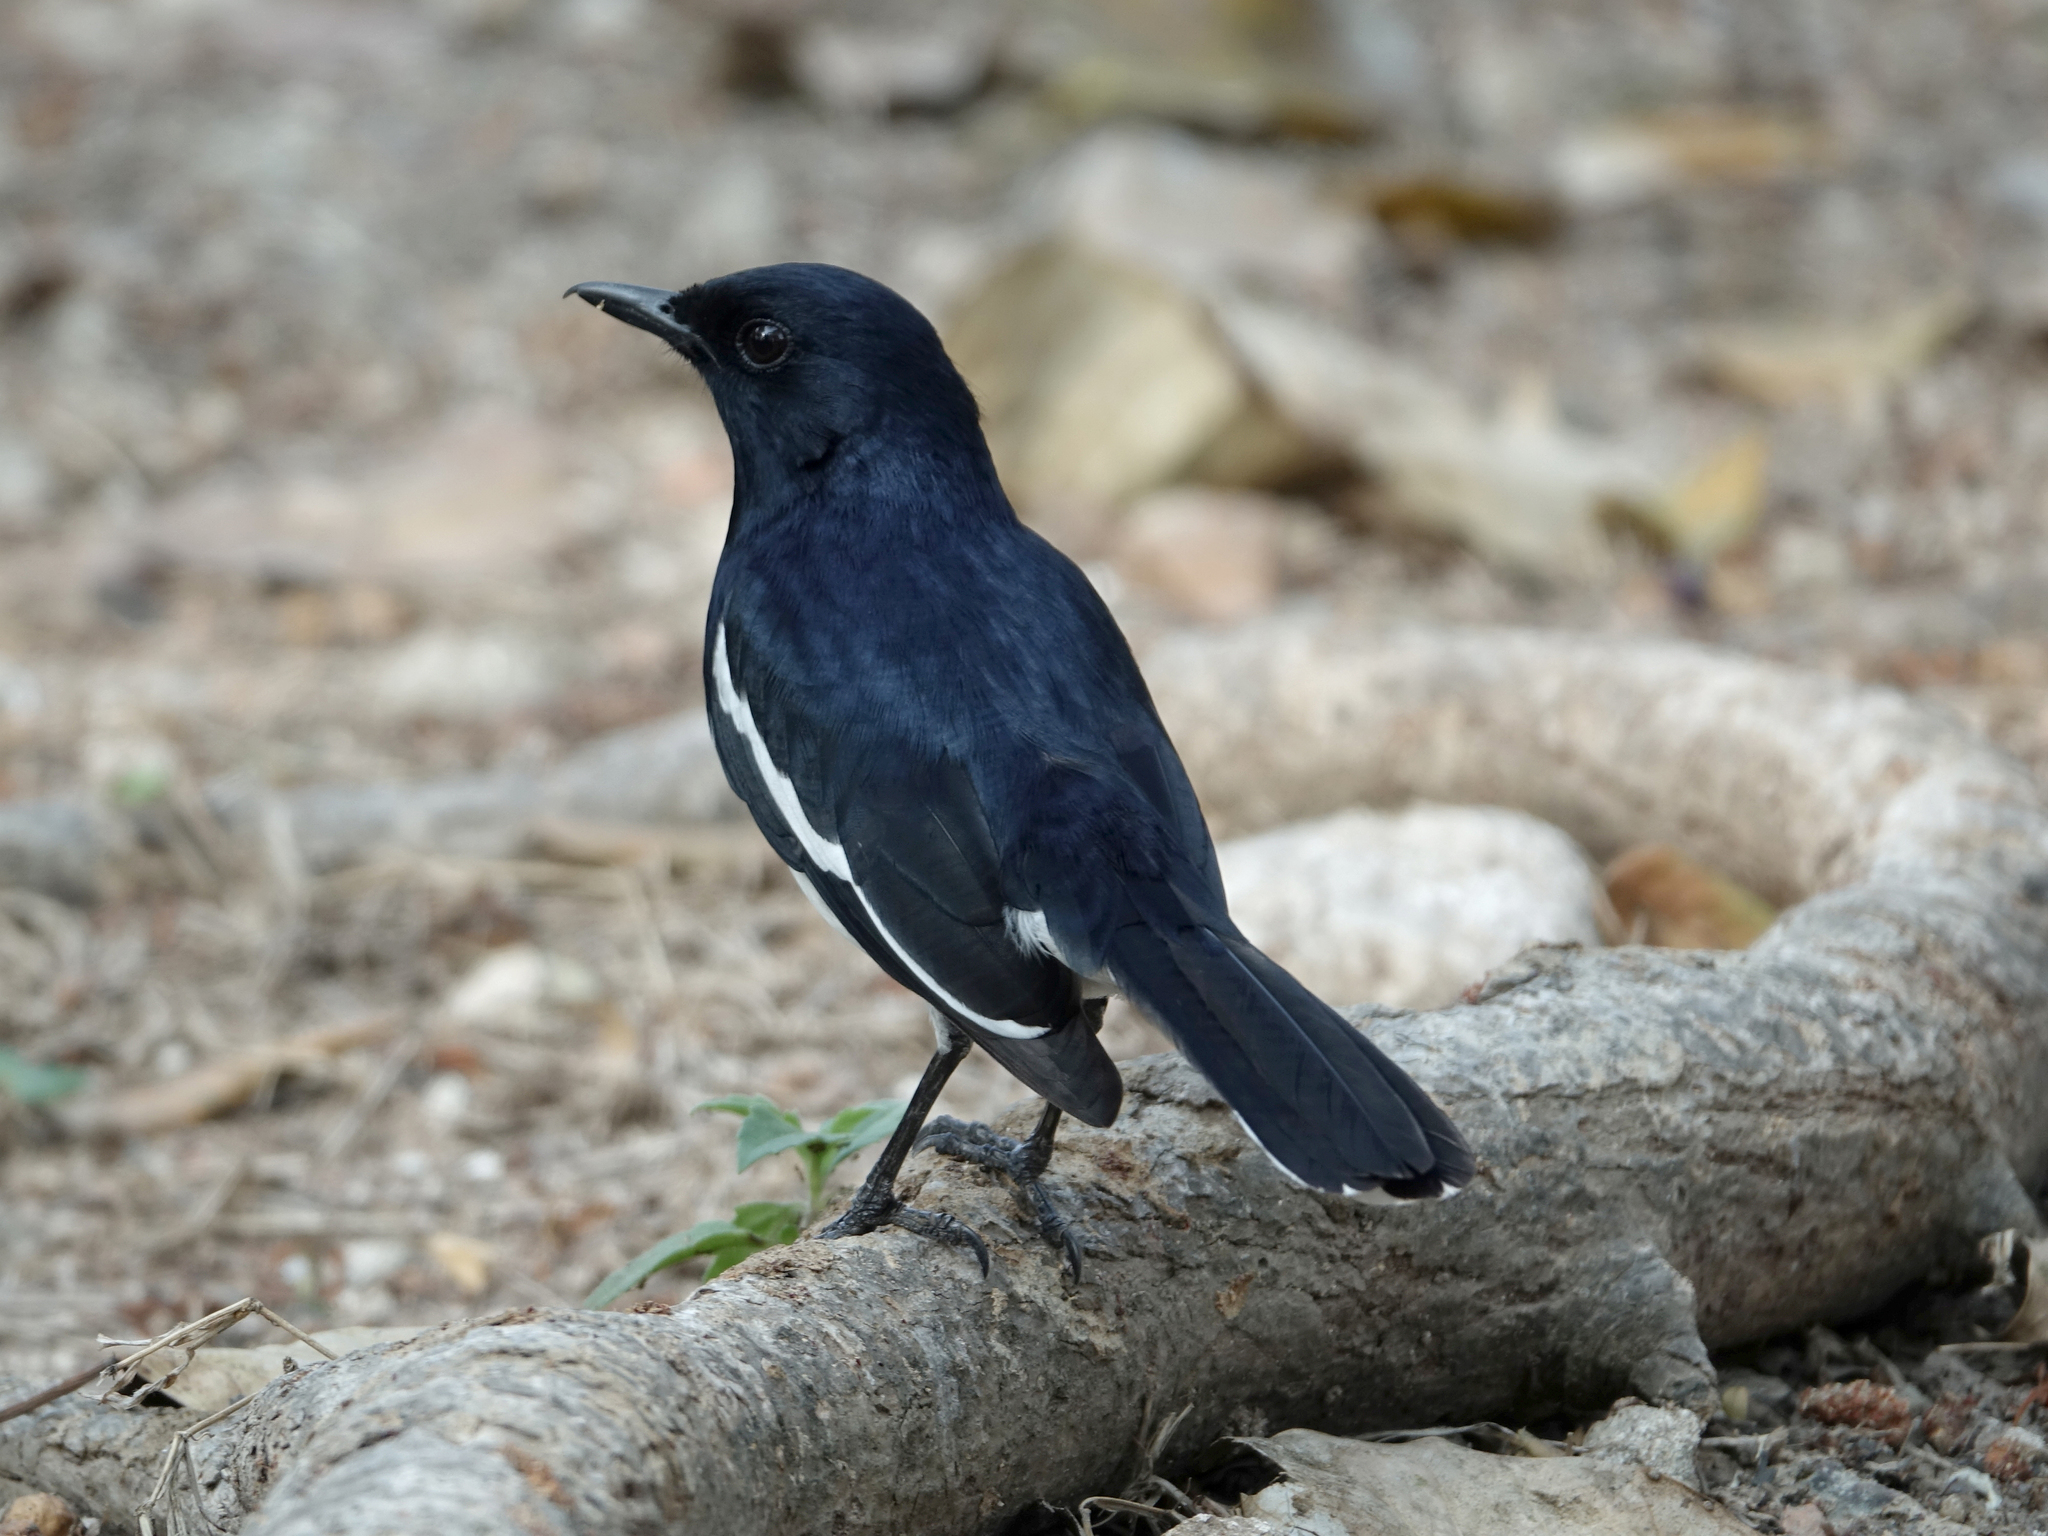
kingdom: Animalia
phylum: Chordata
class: Aves
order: Passeriformes
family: Muscicapidae
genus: Copsychus
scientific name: Copsychus saularis
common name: Oriental magpie-robin
